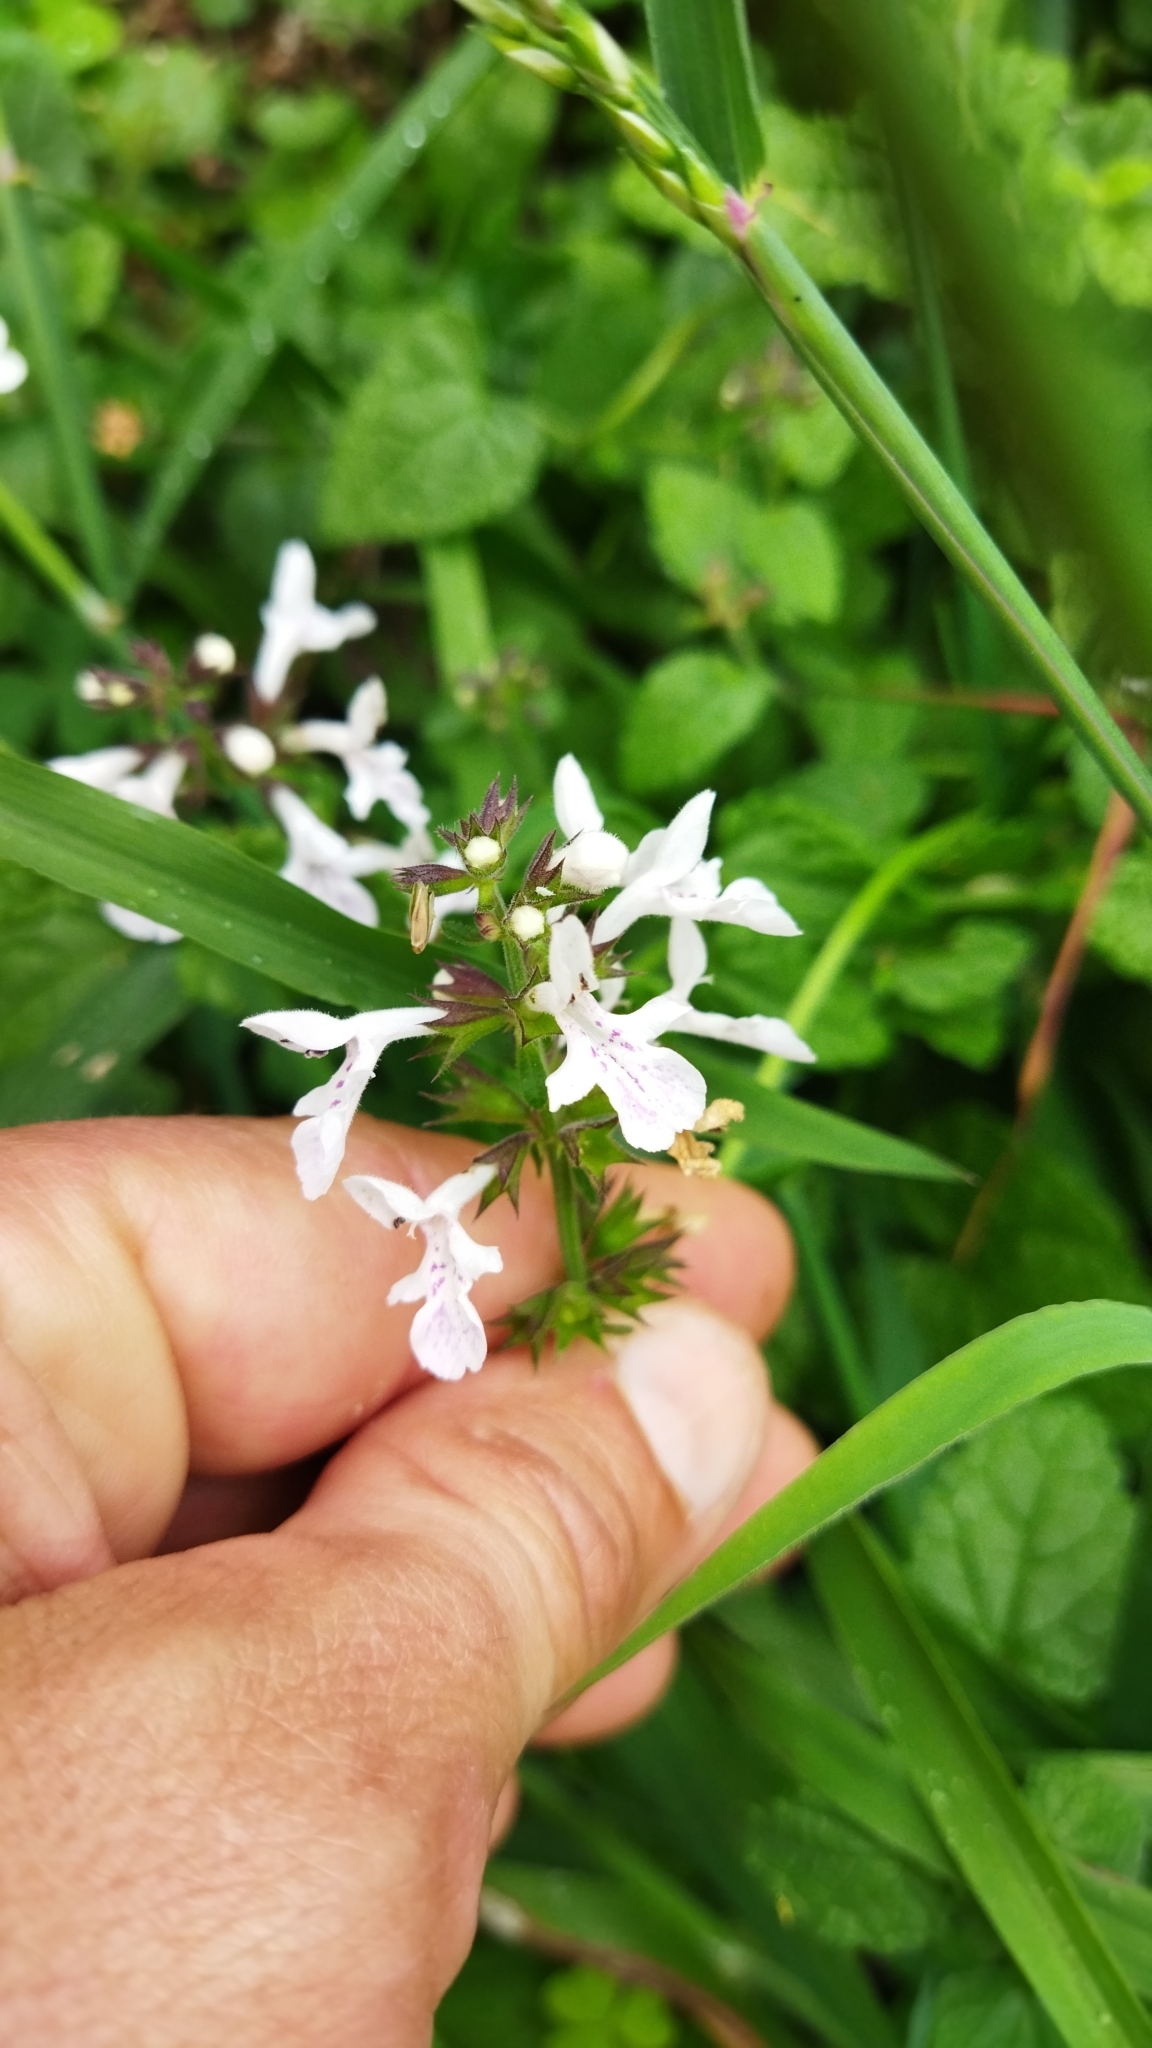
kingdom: Plantae
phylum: Tracheophyta
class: Magnoliopsida
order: Lamiales
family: Lamiaceae
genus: Stachys
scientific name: Stachys aethiopica
